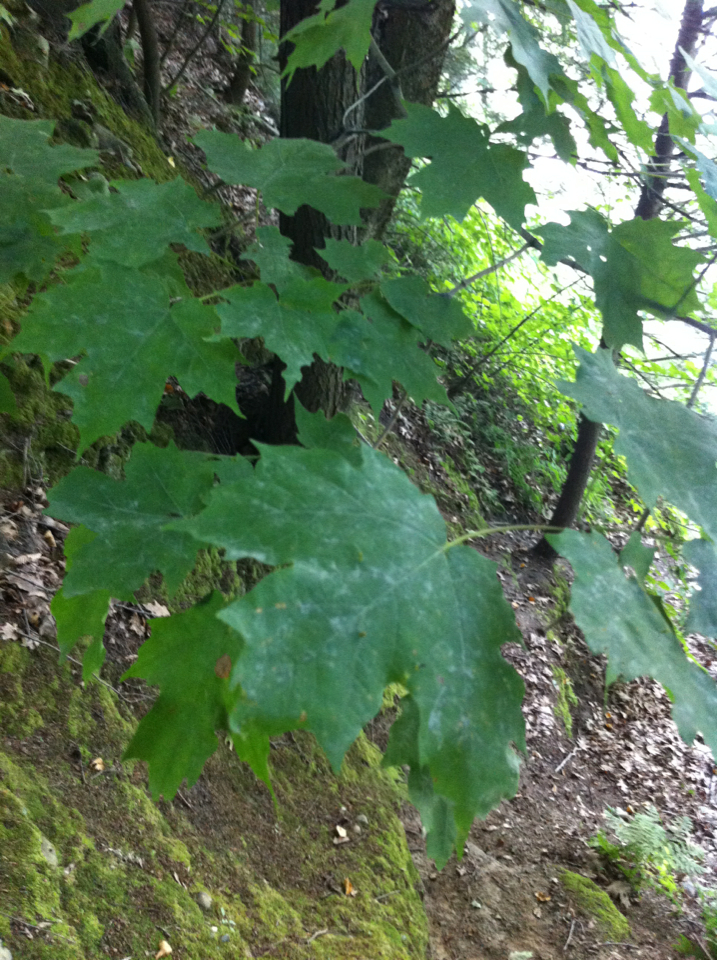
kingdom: Plantae
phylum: Tracheophyta
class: Magnoliopsida
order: Sapindales
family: Sapindaceae
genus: Acer
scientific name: Acer saccharum
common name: Sugar maple
